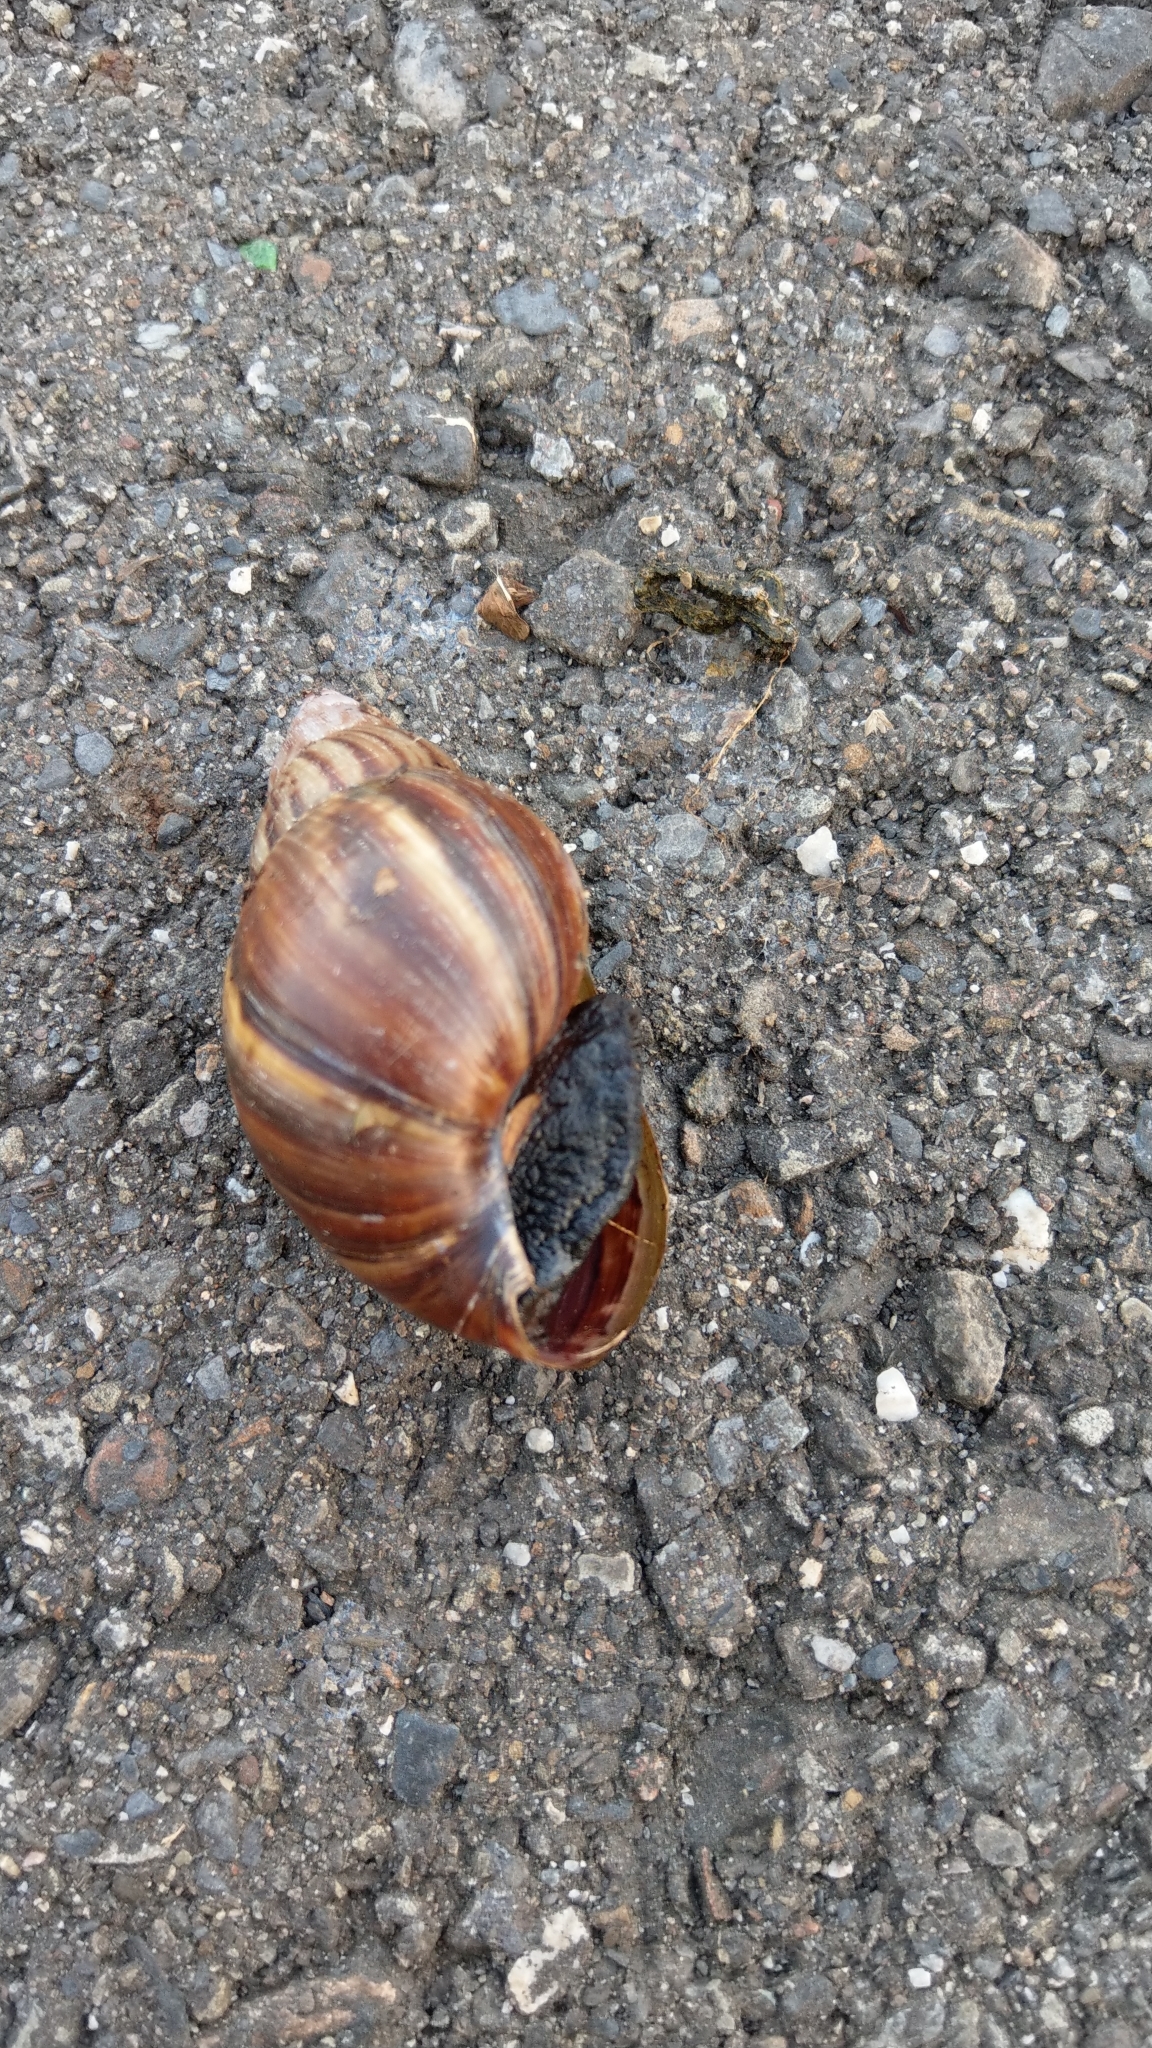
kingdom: Animalia
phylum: Mollusca
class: Gastropoda
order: Stylommatophora
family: Achatinidae
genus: Lissachatina
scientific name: Lissachatina fulica
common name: Giant african snail
